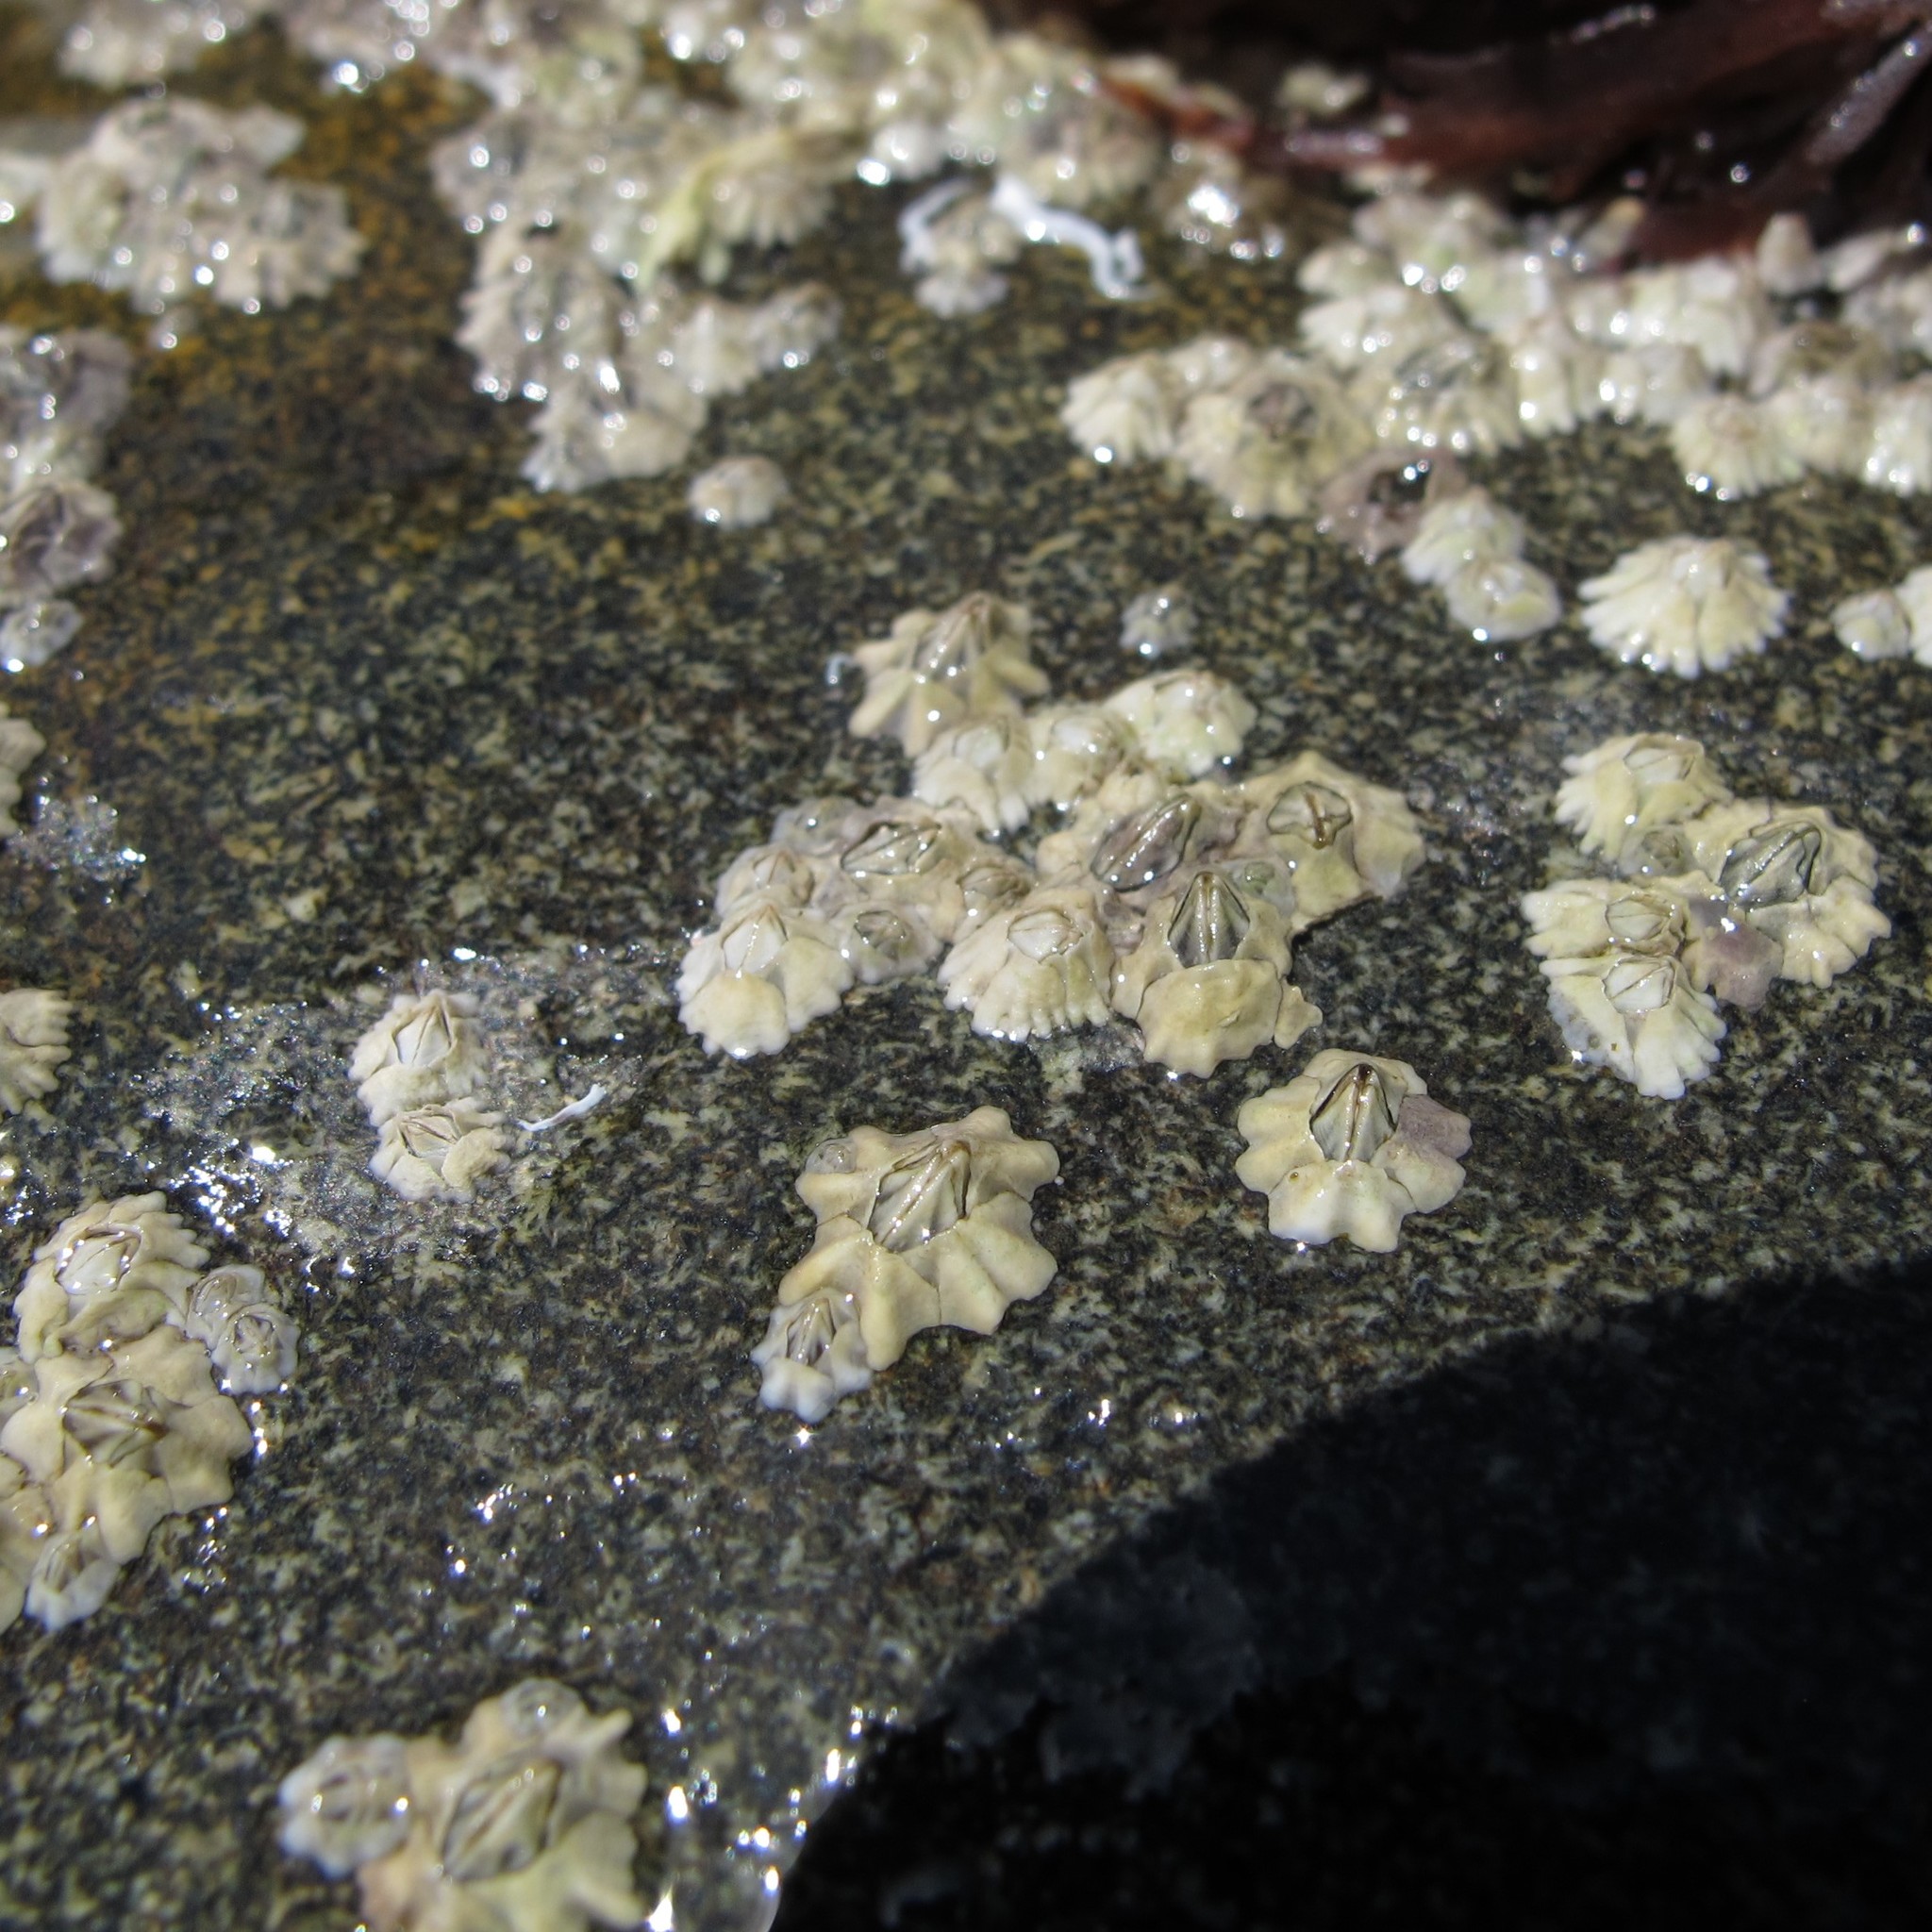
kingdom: Animalia
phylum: Arthropoda
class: Maxillopoda
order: Sessilia
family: Archaeobalanidae
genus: Semibalanus
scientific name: Semibalanus balanoides
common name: Acorn barnacle
